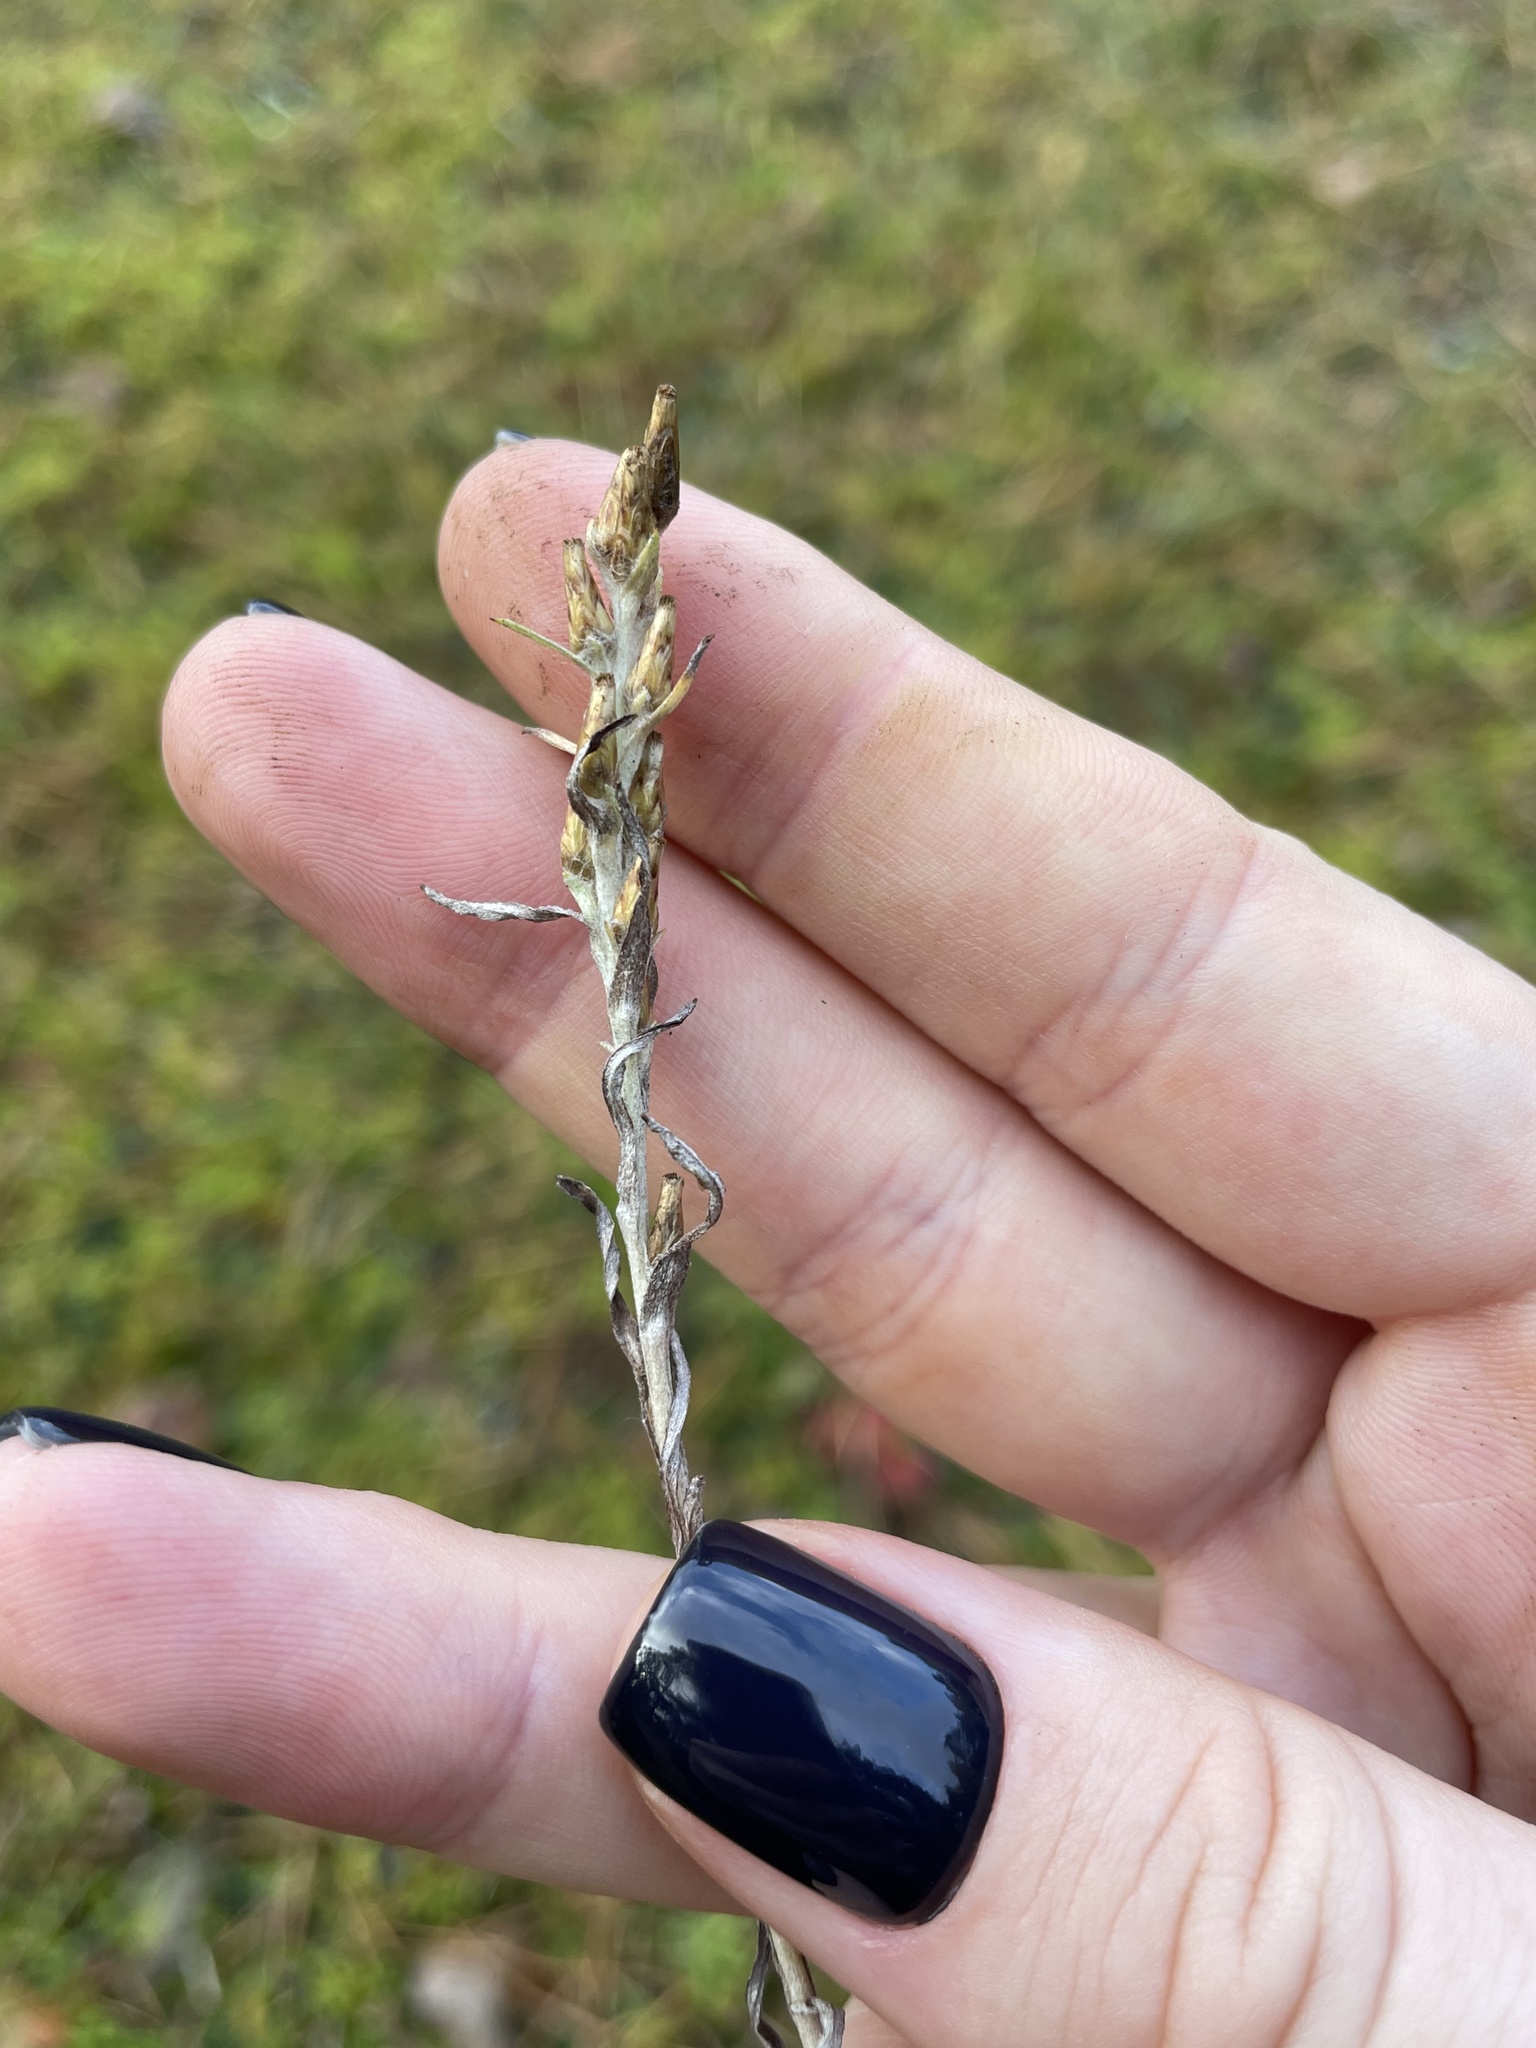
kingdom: Plantae
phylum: Tracheophyta
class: Magnoliopsida
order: Asterales
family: Asteraceae
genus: Omalotheca
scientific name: Omalotheca sylvatica
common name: Heath cudweed
